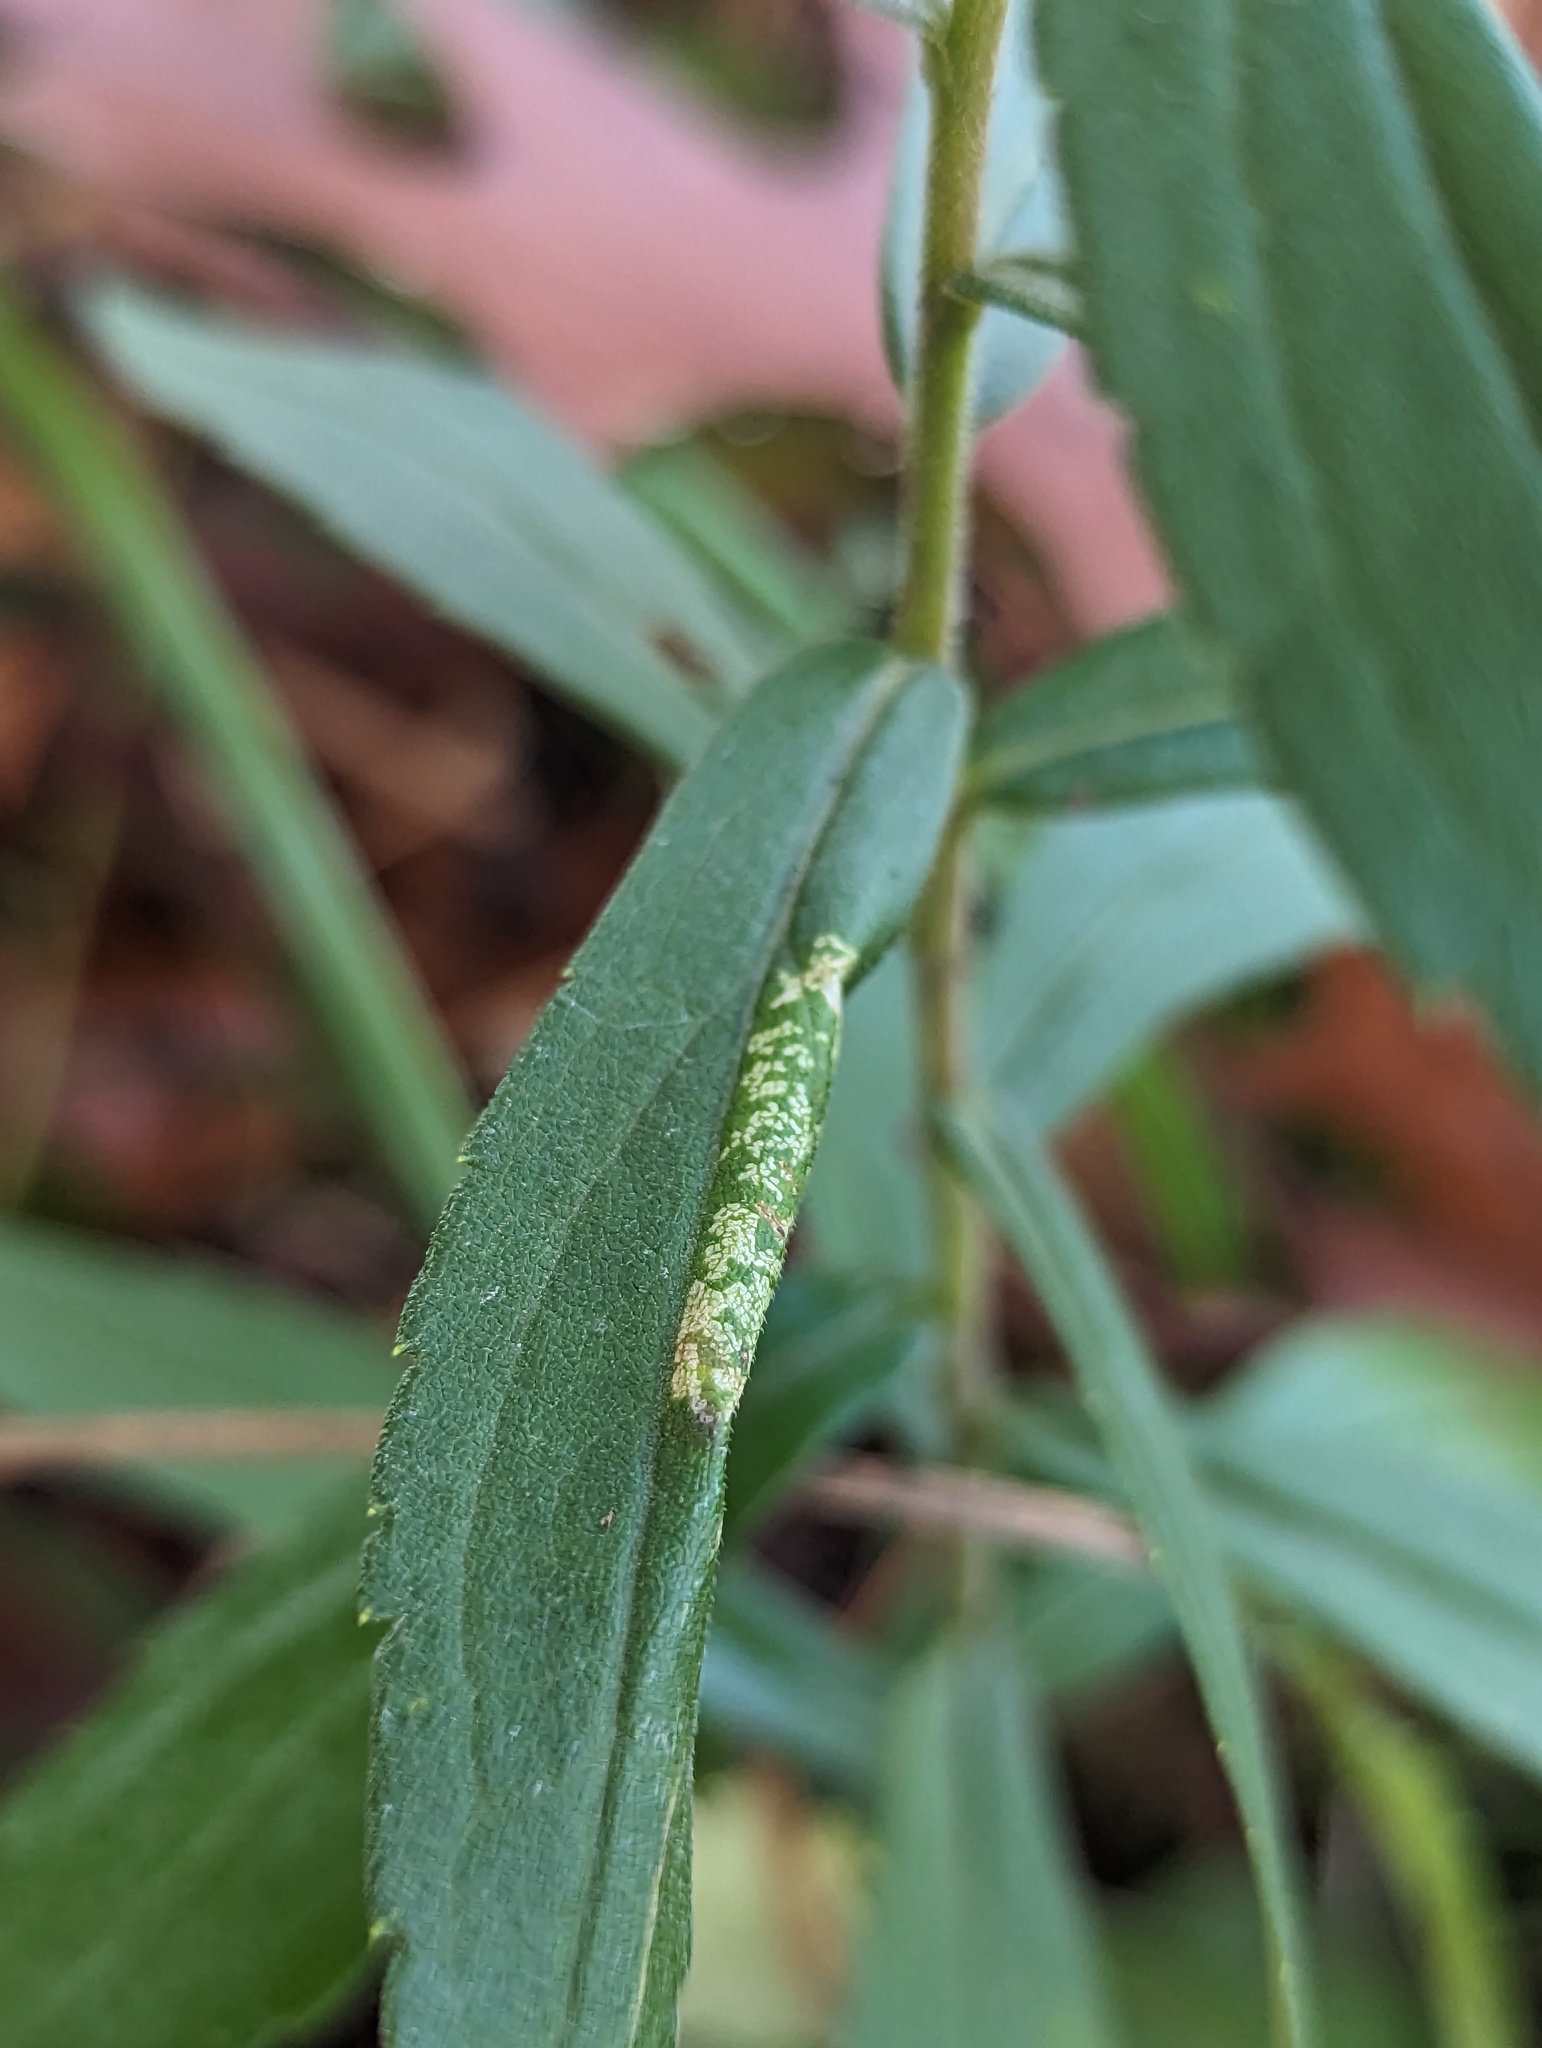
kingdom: Animalia
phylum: Arthropoda
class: Insecta
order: Lepidoptera
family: Gracillariidae
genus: Cremastobombycia
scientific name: Cremastobombycia solidaginis
